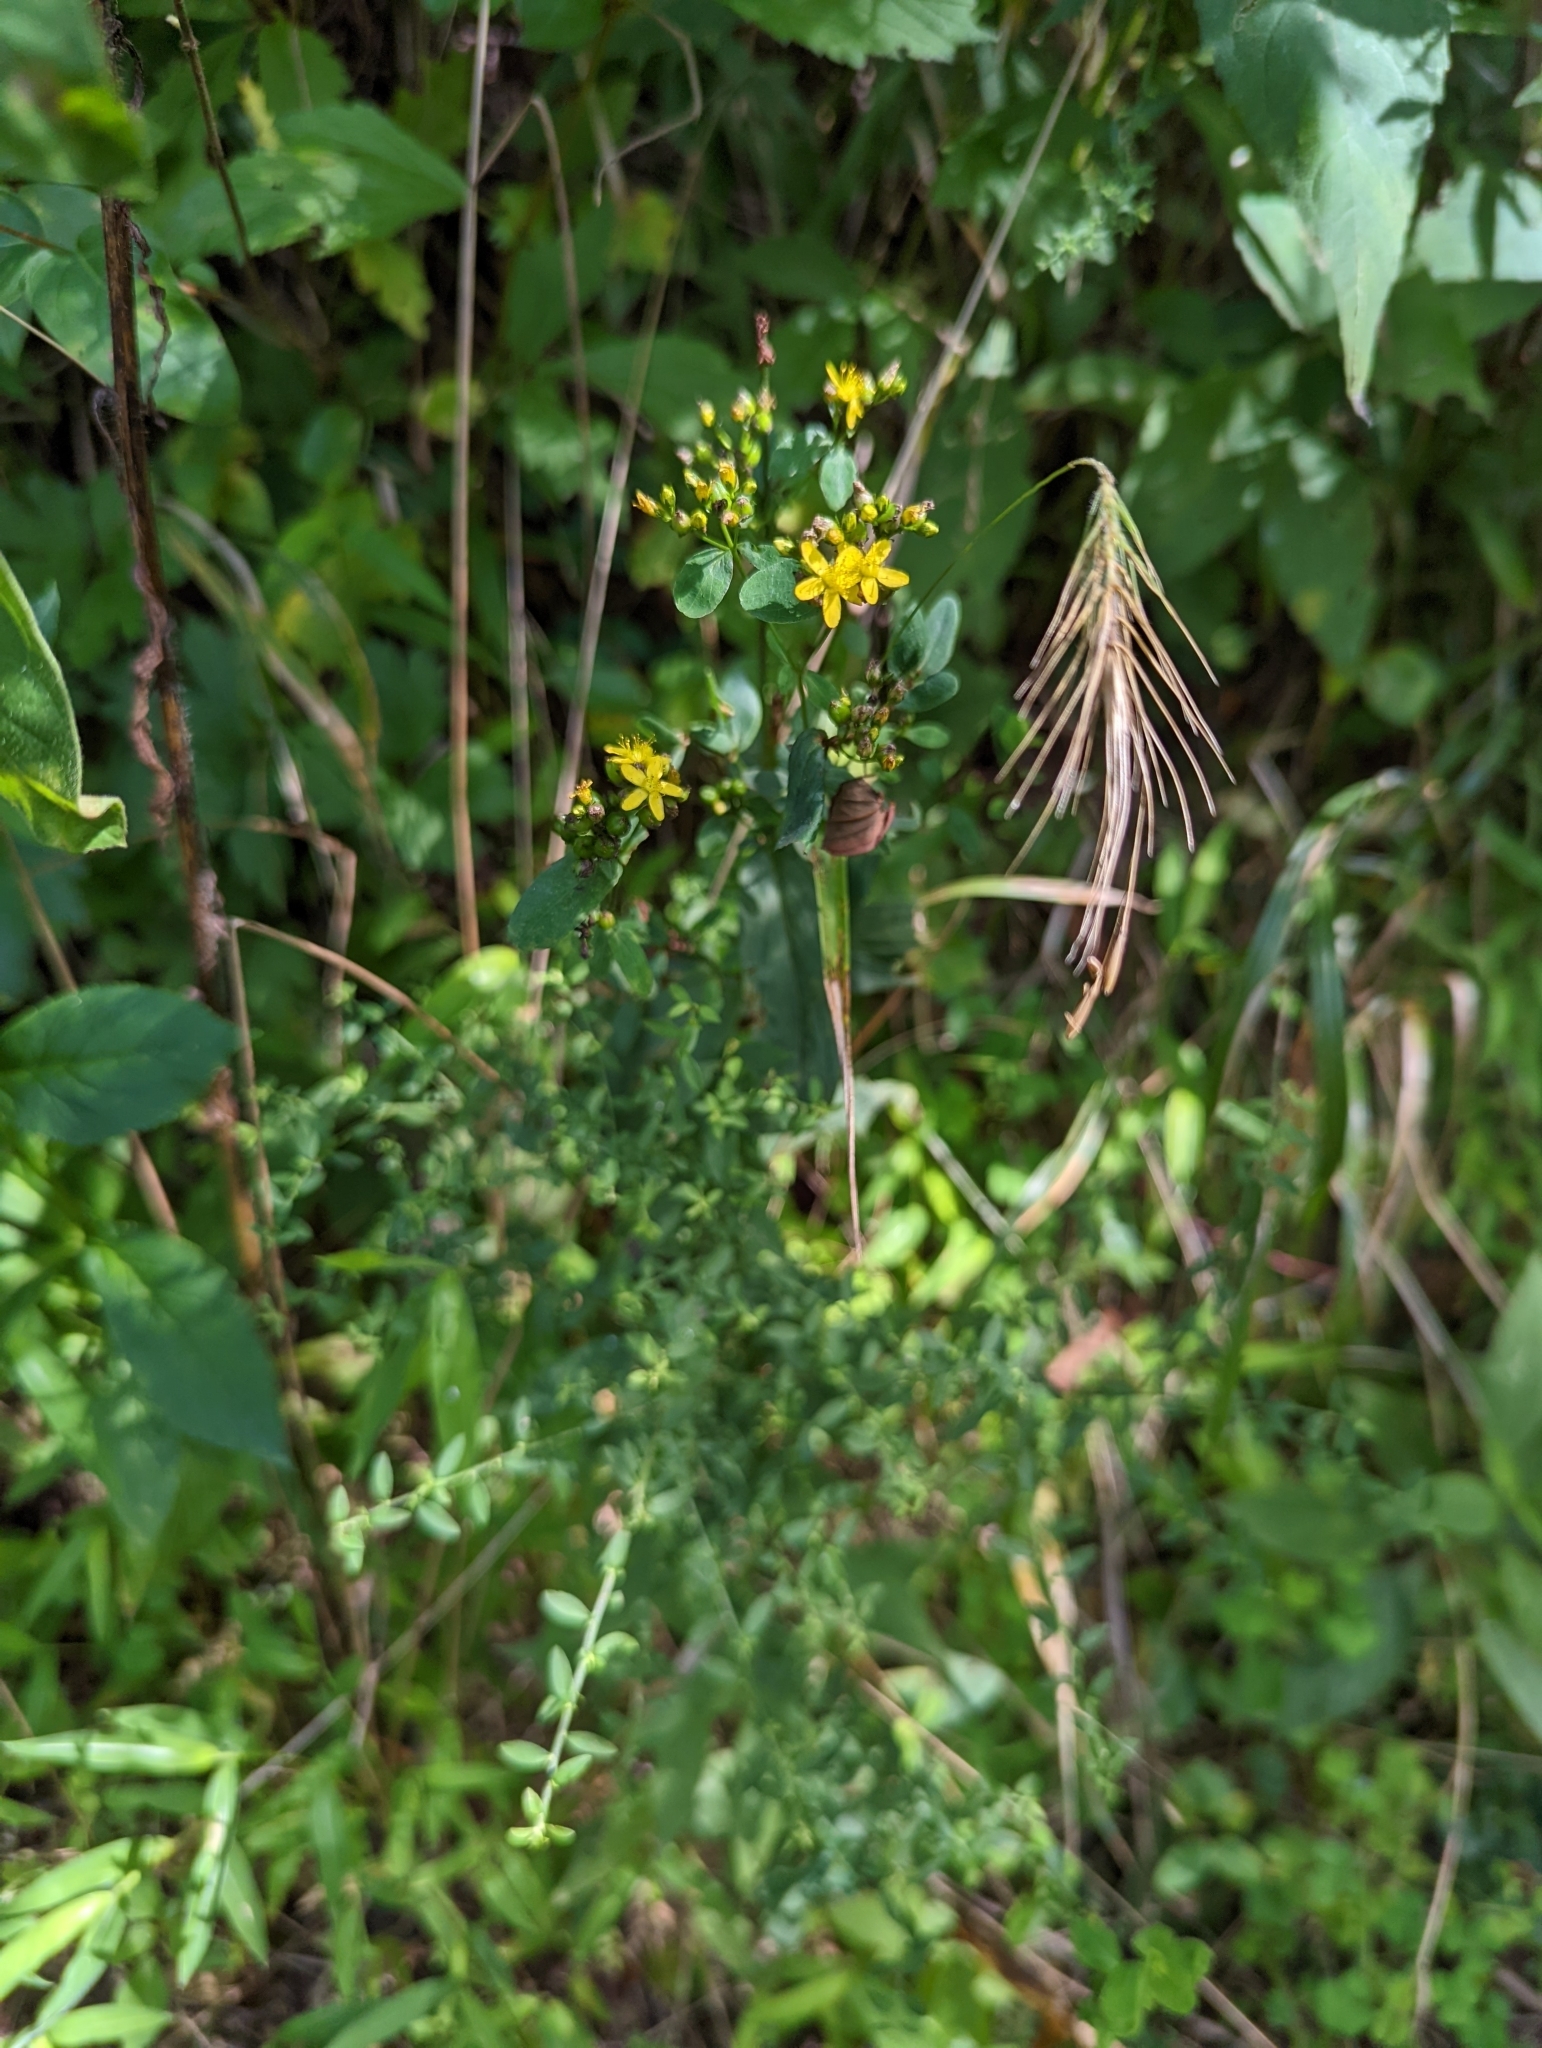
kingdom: Plantae
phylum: Tracheophyta
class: Magnoliopsida
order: Malpighiales
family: Hypericaceae
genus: Hypericum
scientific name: Hypericum punctatum
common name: Spotted st. john's-wort
